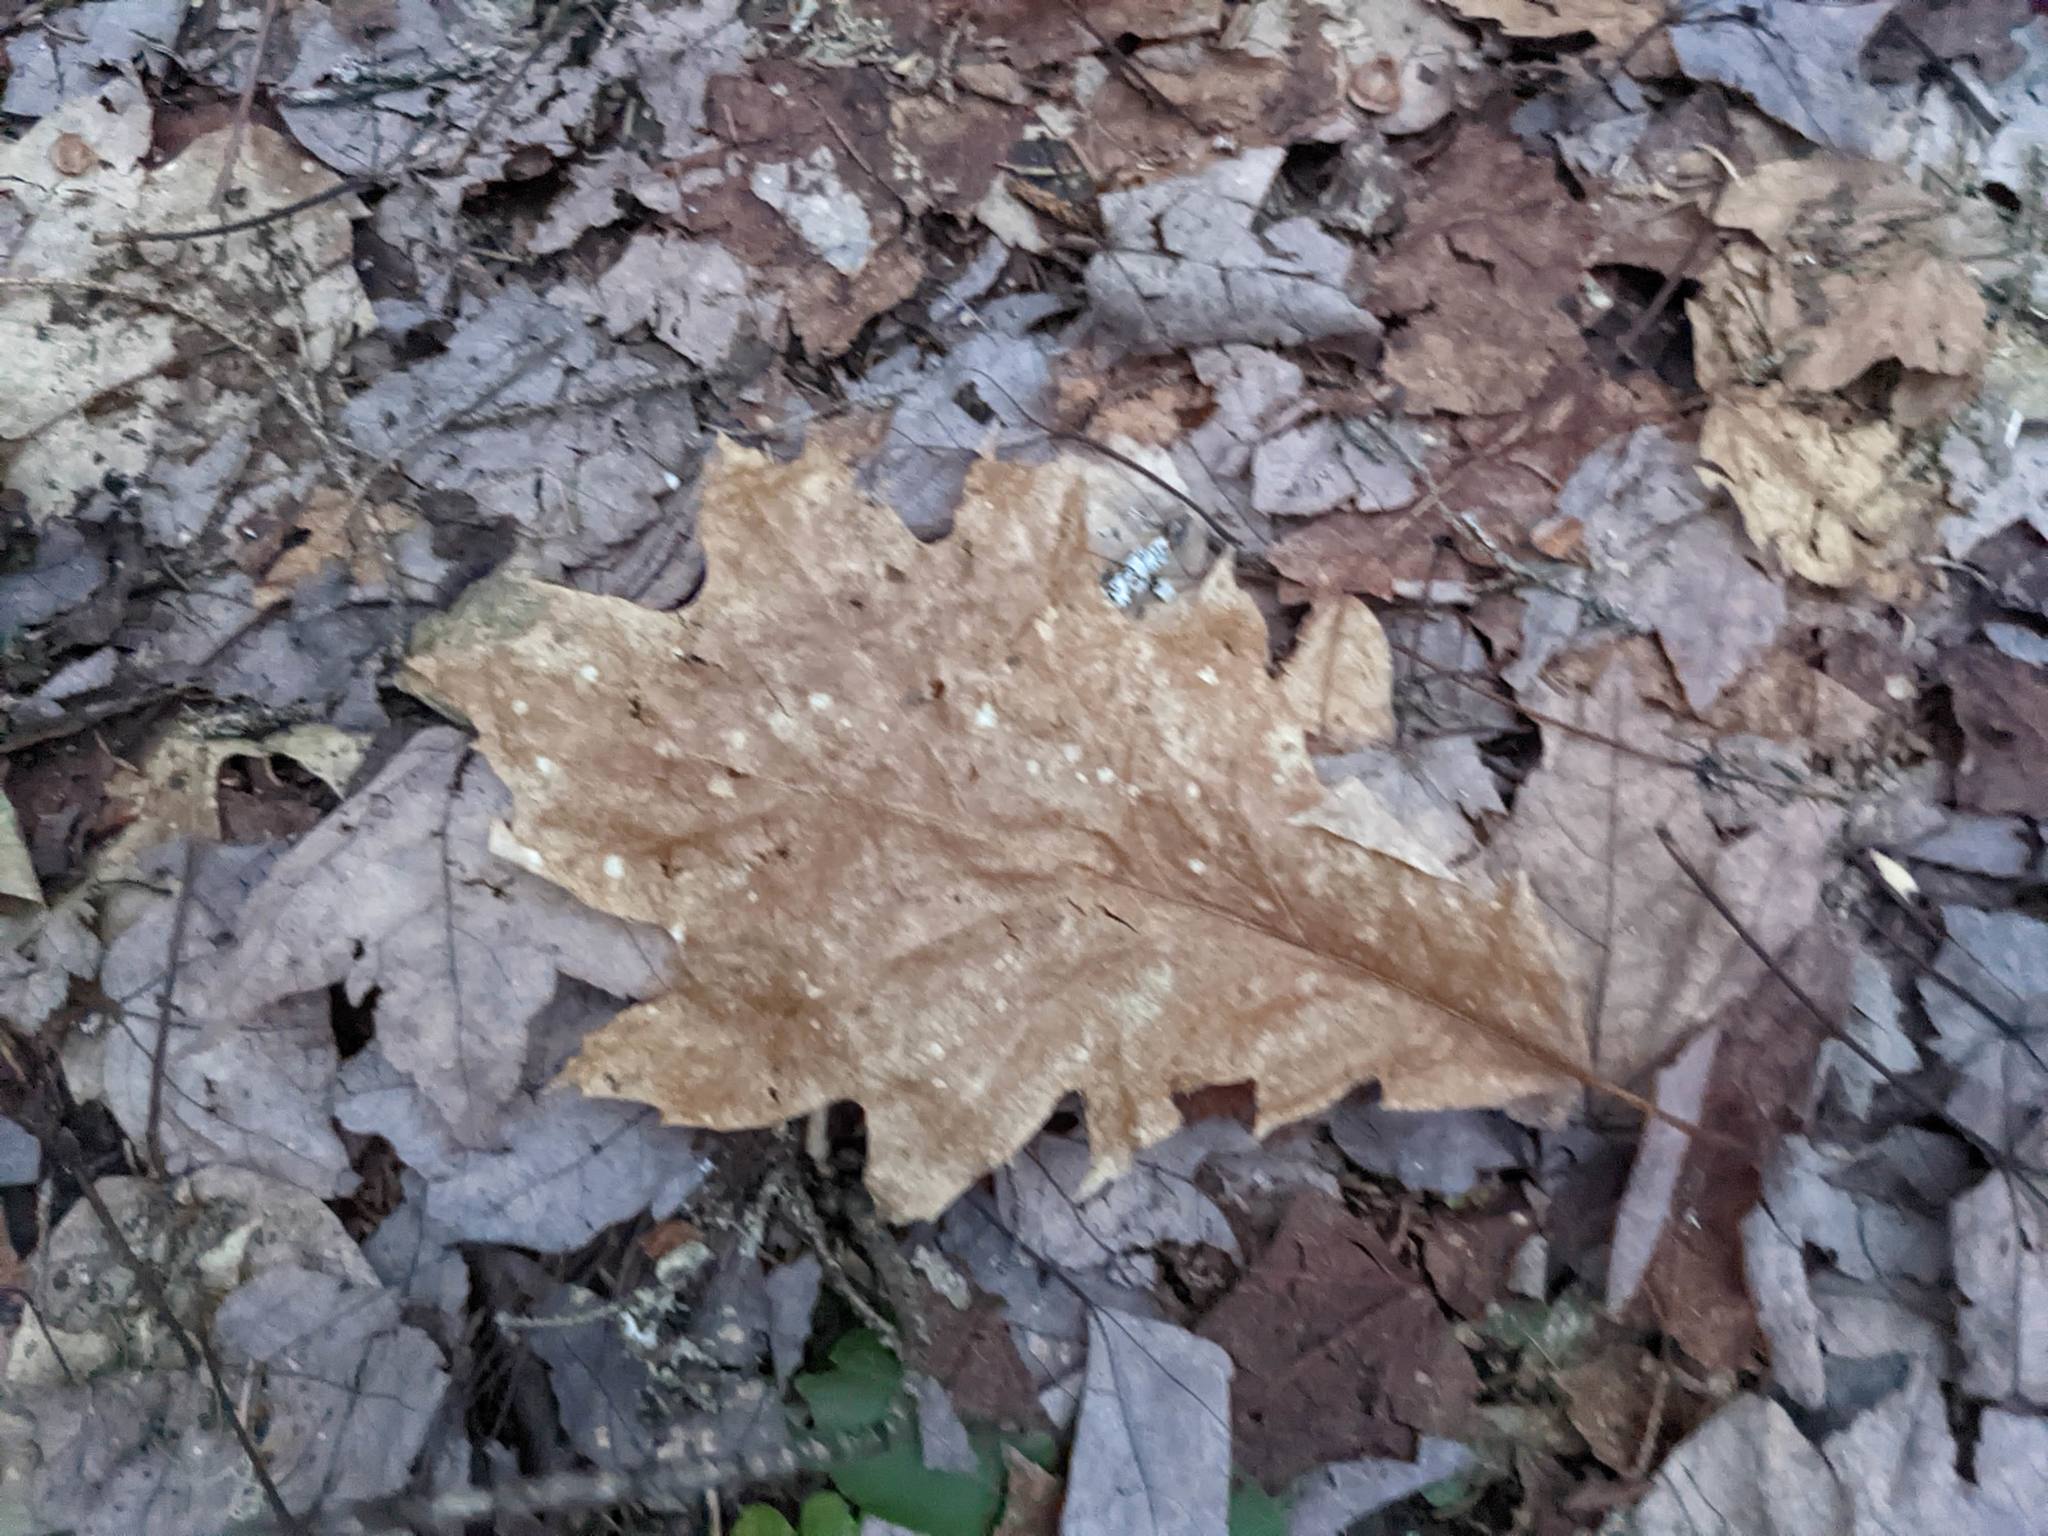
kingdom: Plantae
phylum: Tracheophyta
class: Magnoliopsida
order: Fagales
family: Fagaceae
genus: Quercus
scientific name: Quercus rubra
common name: Red oak
